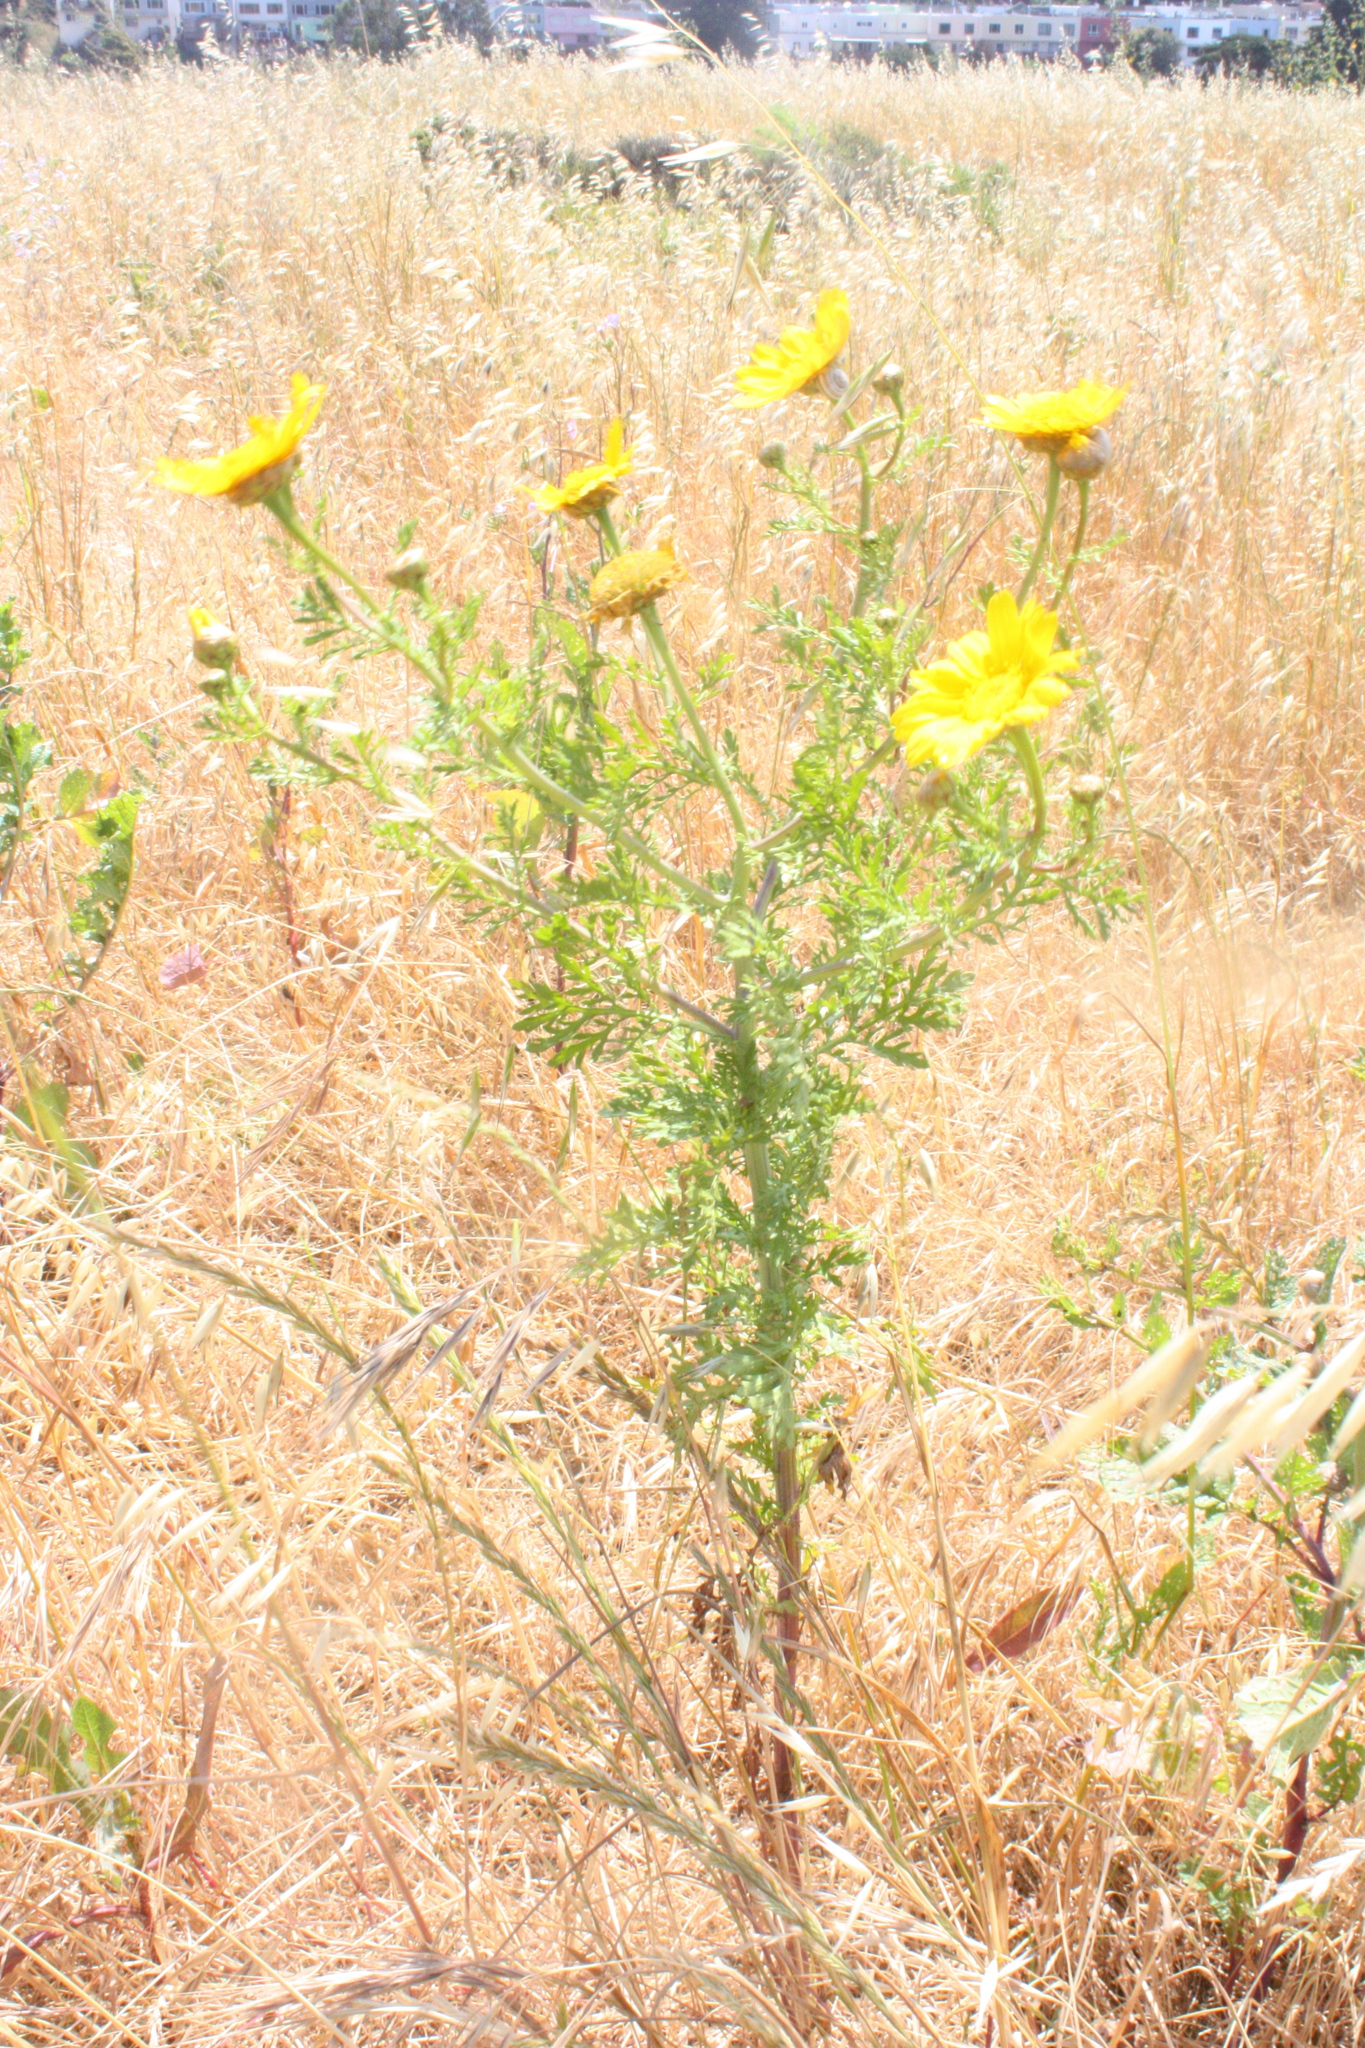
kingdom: Plantae
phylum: Tracheophyta
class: Magnoliopsida
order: Asterales
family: Asteraceae
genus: Glebionis
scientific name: Glebionis coronaria
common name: Crowndaisy
